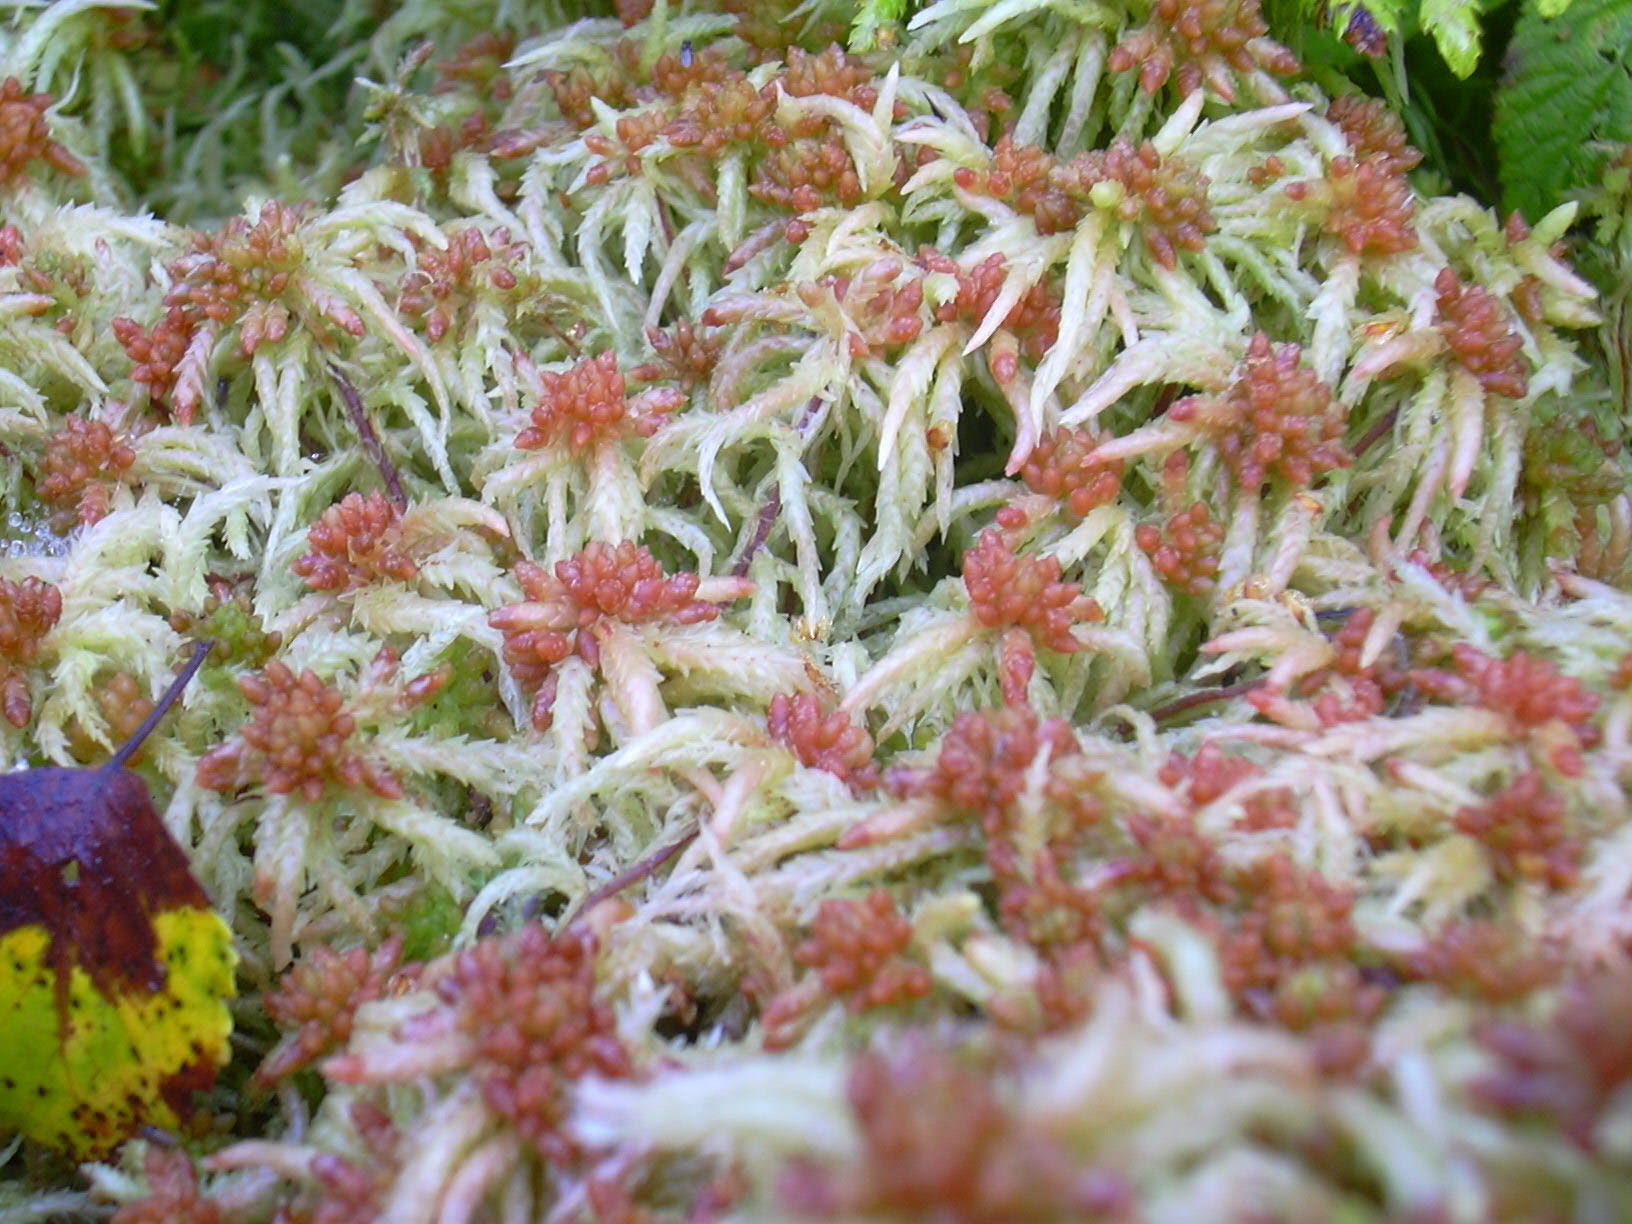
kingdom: Plantae
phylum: Bryophyta
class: Sphagnopsida
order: Sphagnales
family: Sphagnaceae
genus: Sphagnum
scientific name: Sphagnum palustre
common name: Blunt-leaved bog-moss
